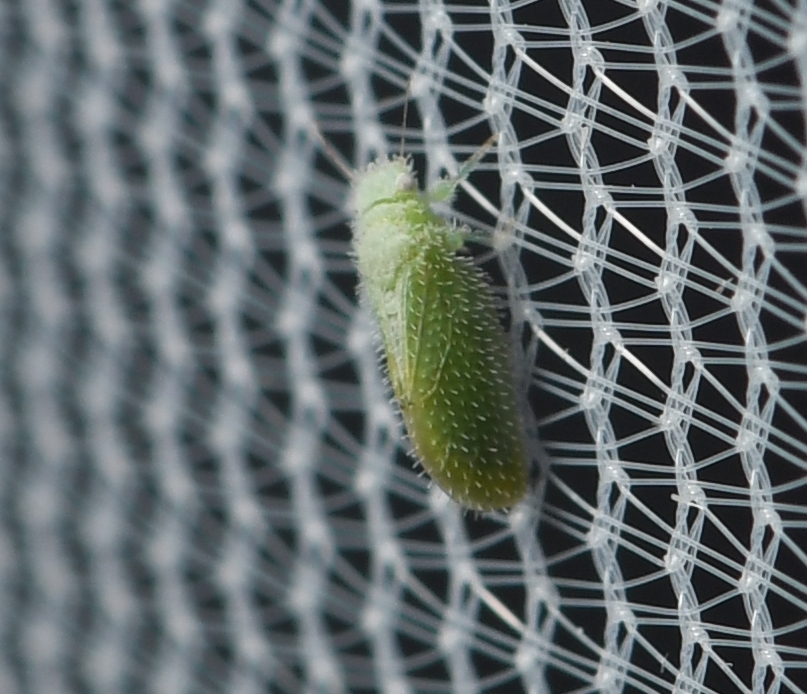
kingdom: Animalia
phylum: Arthropoda
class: Insecta
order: Hemiptera
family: Psyllidae
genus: Aphalaroida
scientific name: Aphalaroida spinifera
